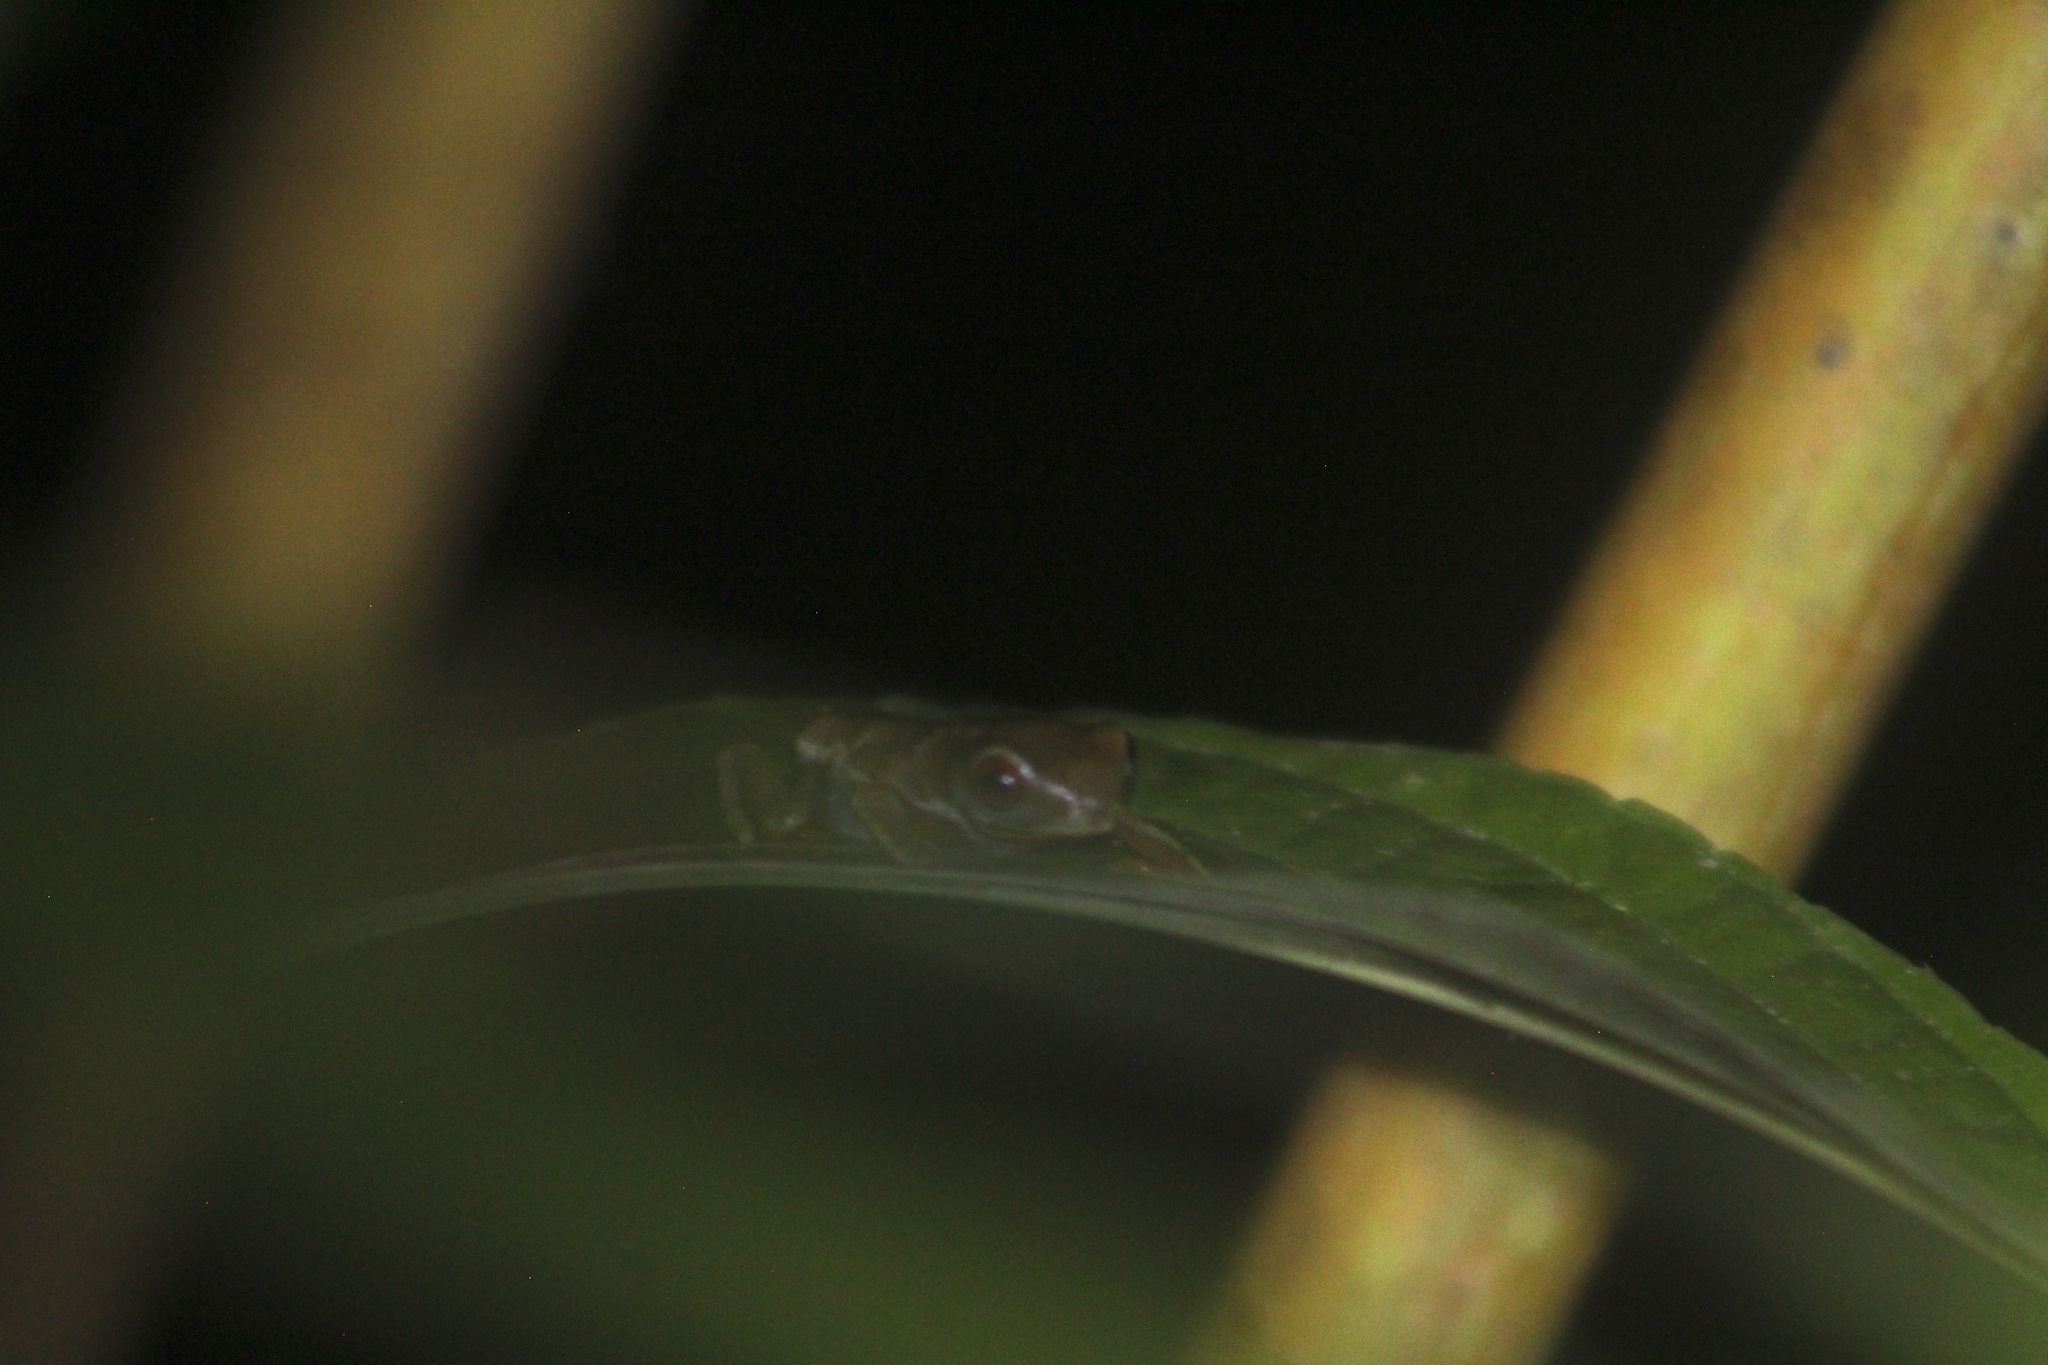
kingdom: Animalia
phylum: Chordata
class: Amphibia
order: Anura
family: Phyllomedusidae
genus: Agalychnis
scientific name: Agalychnis callidryas
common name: Red-eyed treefrog
